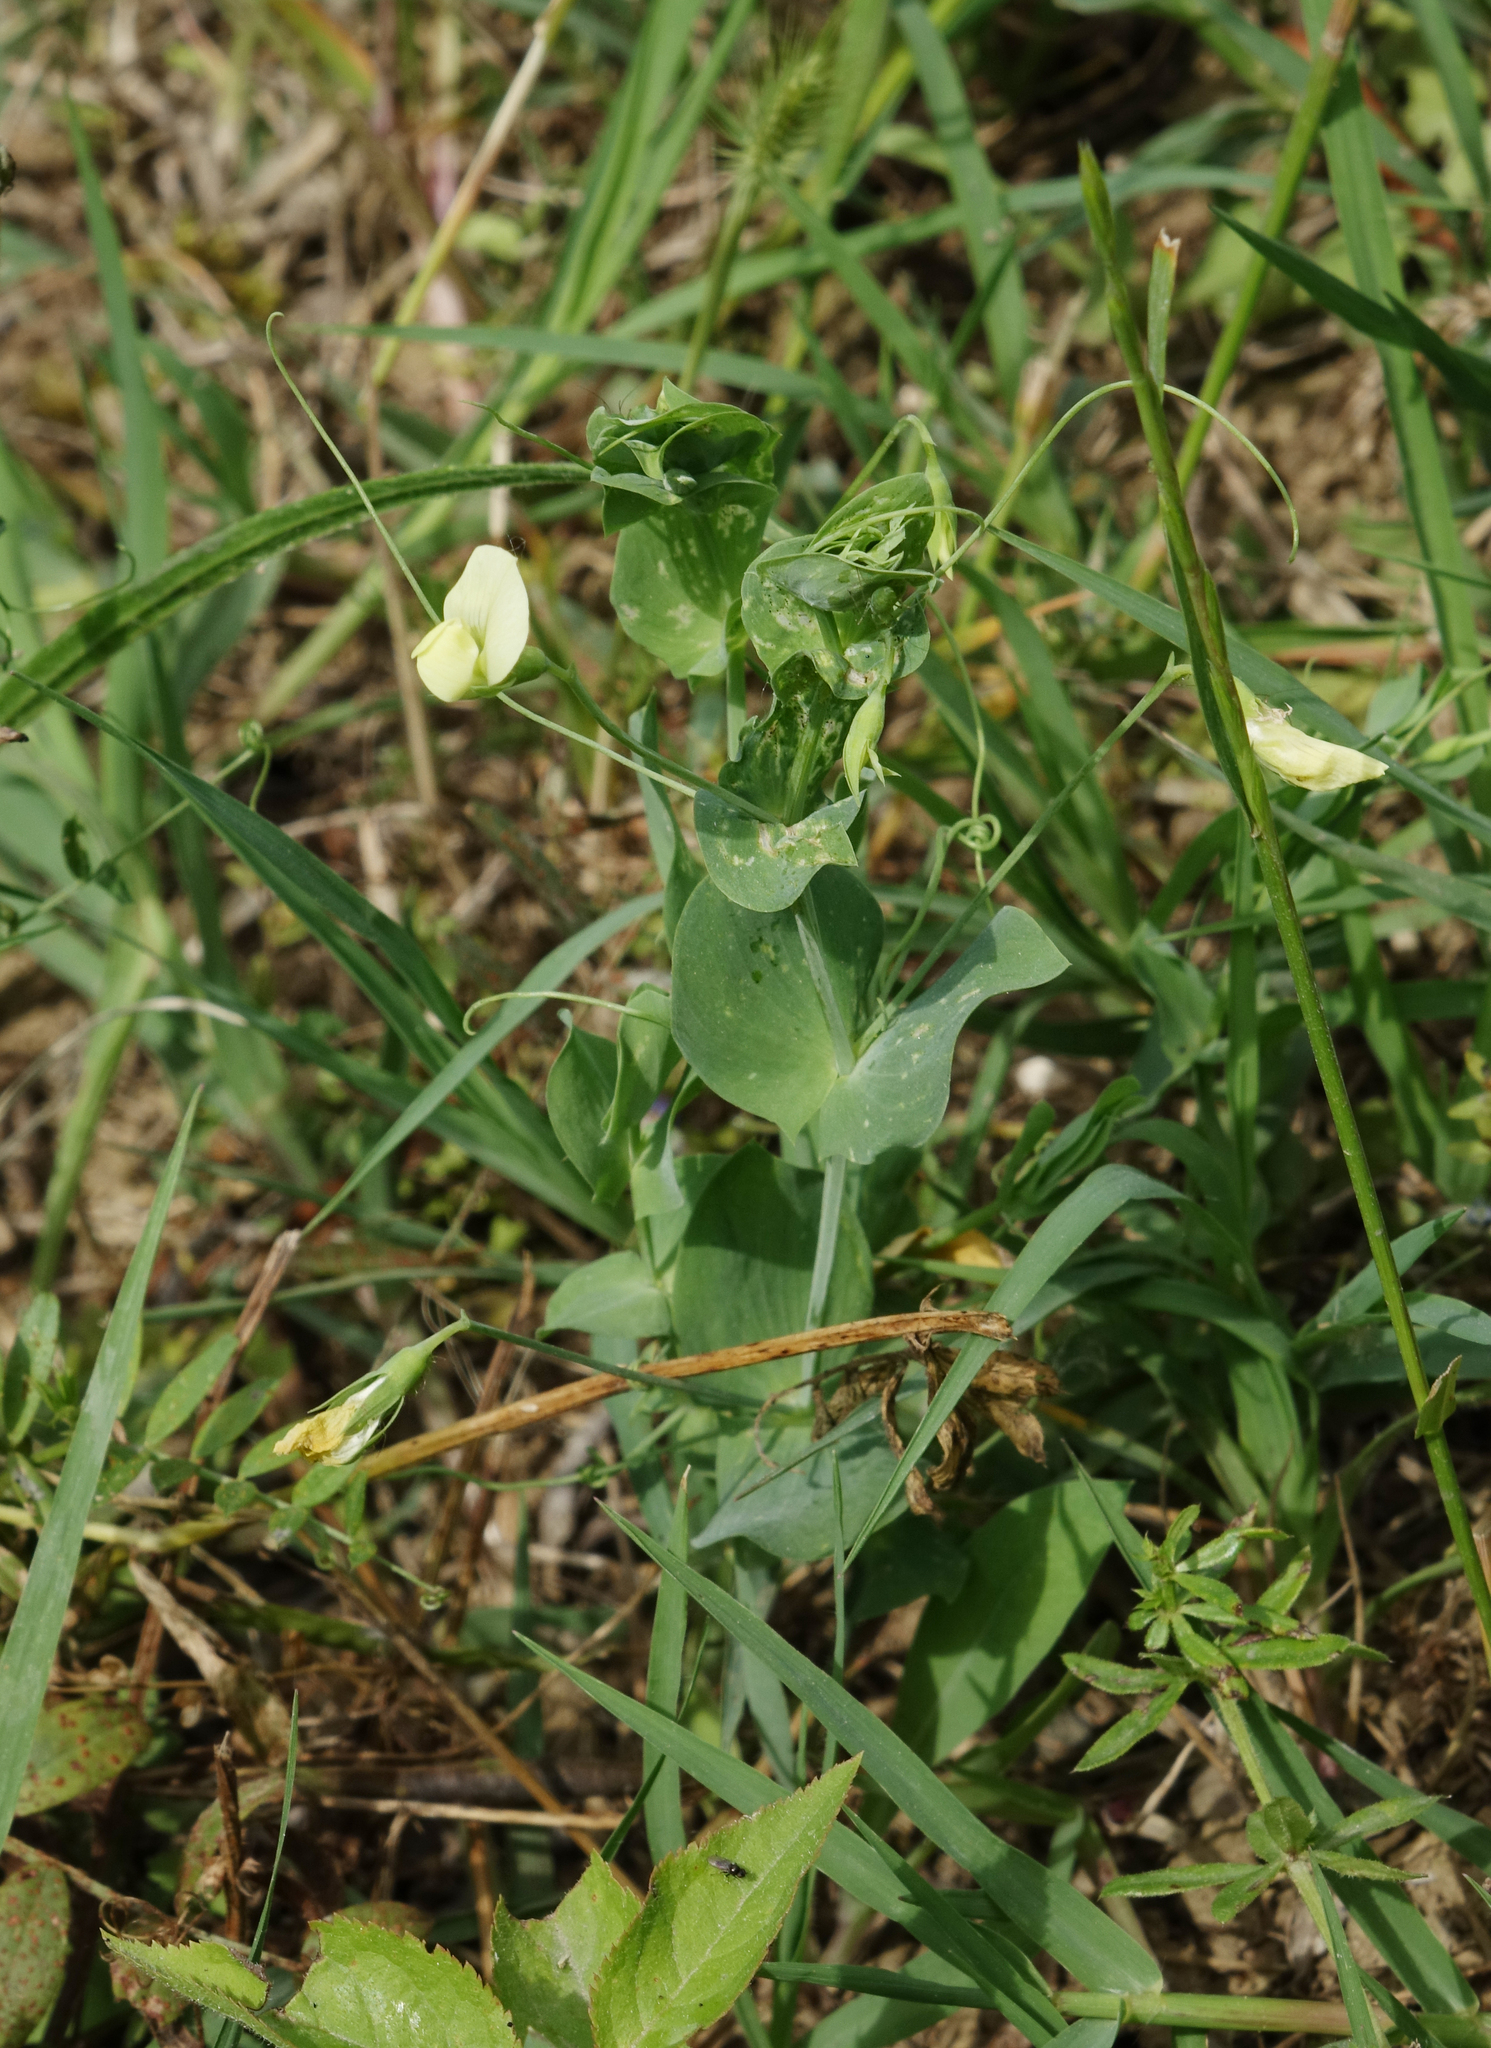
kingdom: Plantae
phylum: Tracheophyta
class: Magnoliopsida
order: Fabales
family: Fabaceae
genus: Lathyrus
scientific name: Lathyrus aphaca
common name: Yellow vetchling
